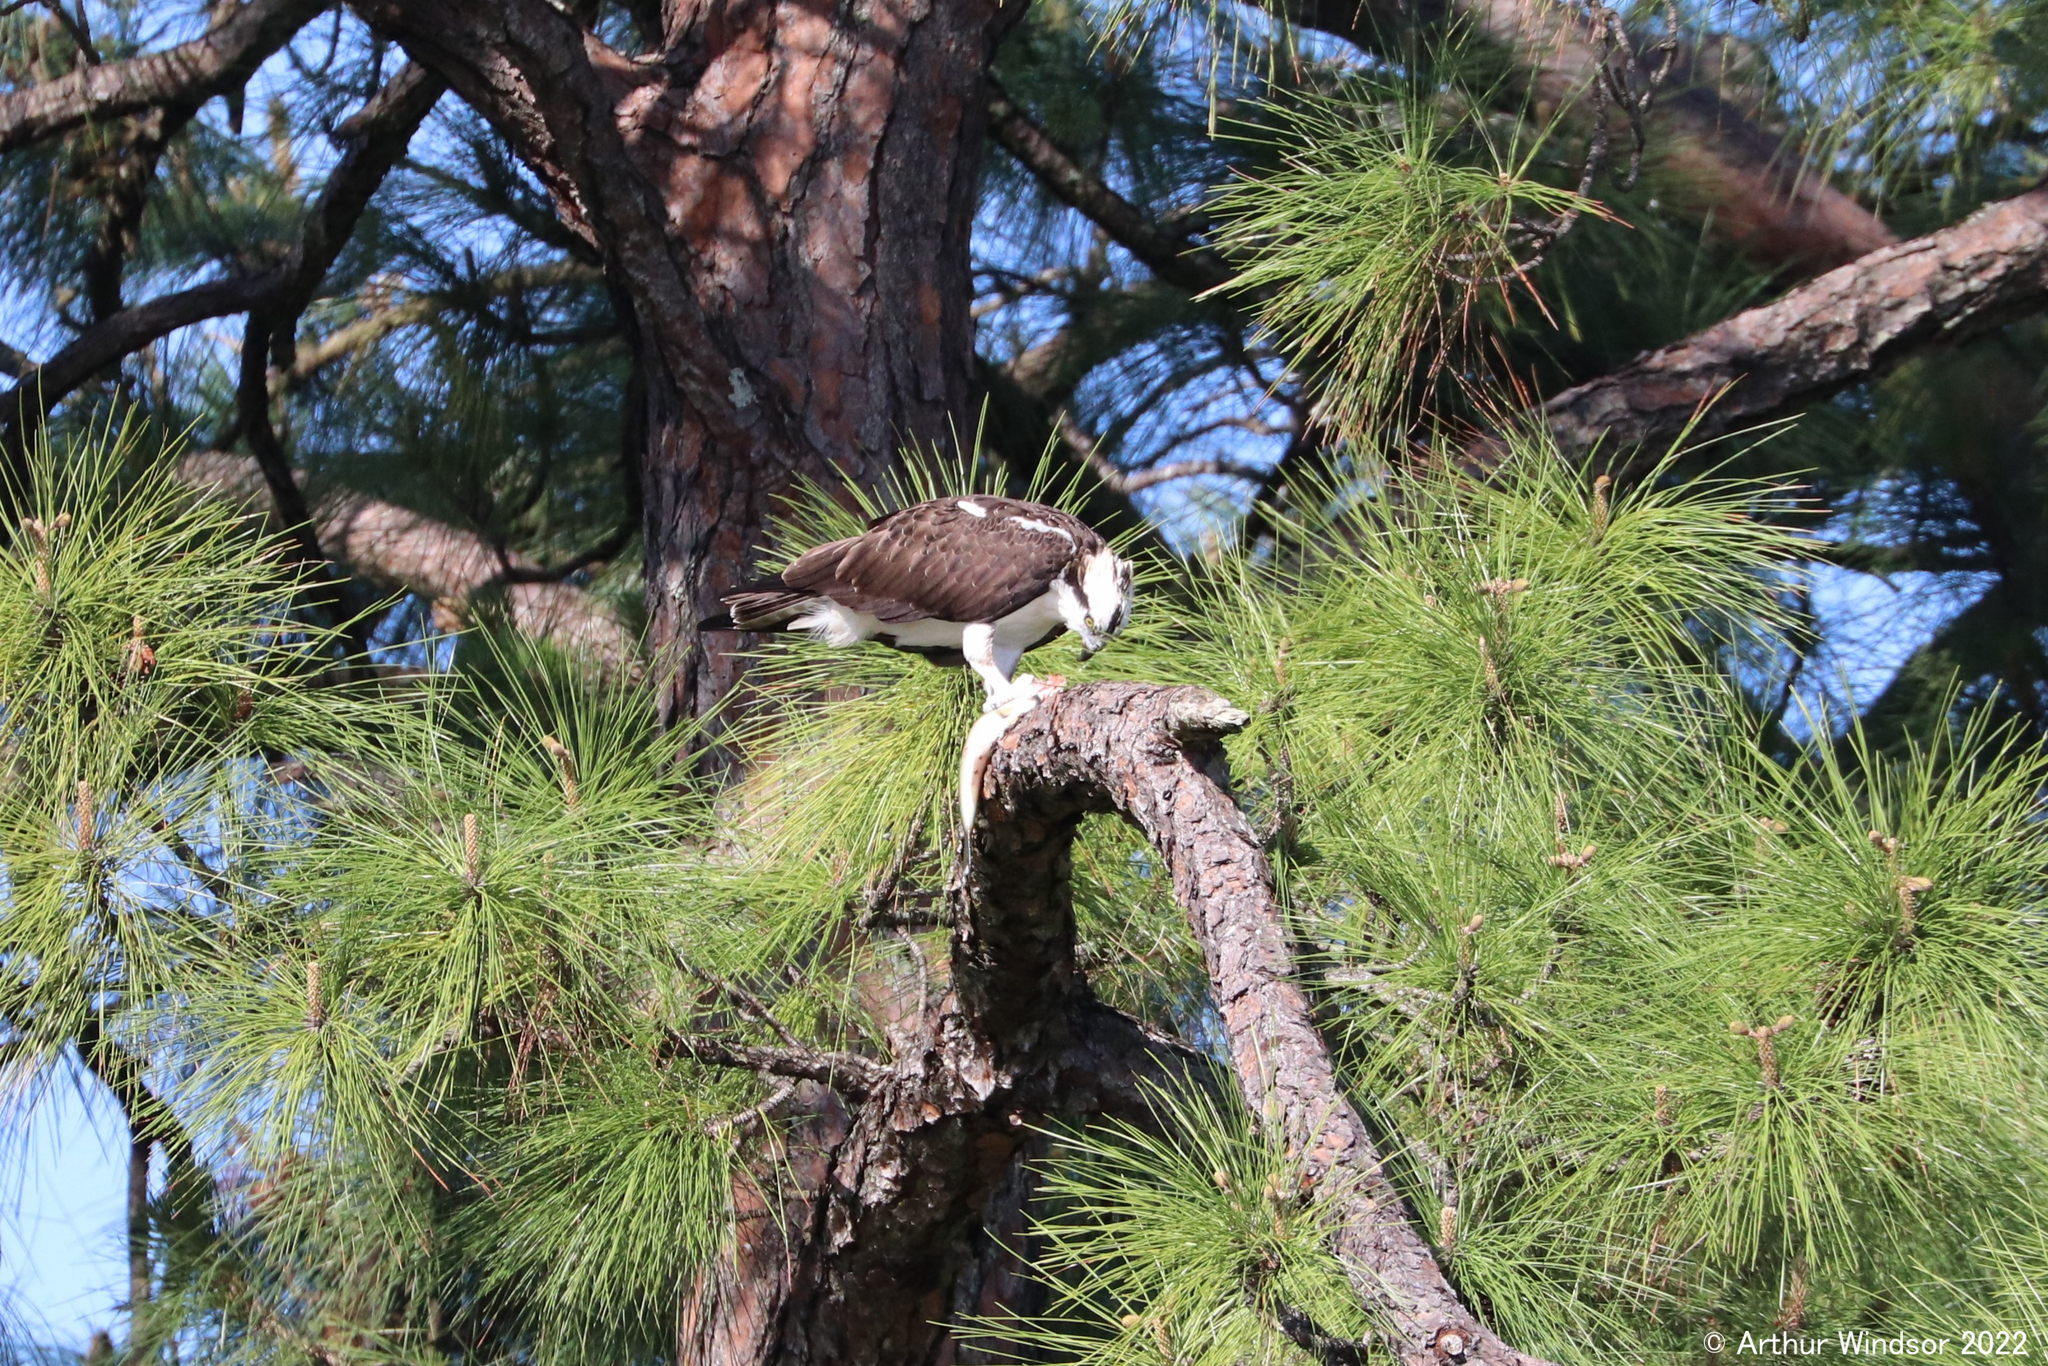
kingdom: Animalia
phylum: Chordata
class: Aves
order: Accipitriformes
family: Pandionidae
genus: Pandion
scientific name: Pandion haliaetus
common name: Osprey
